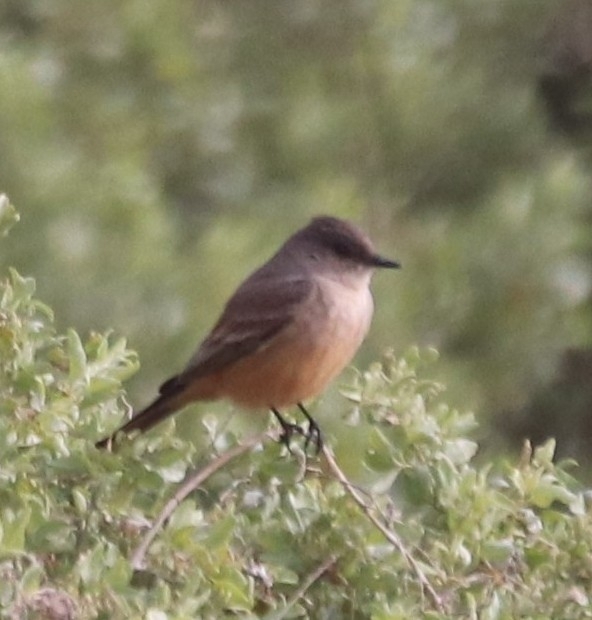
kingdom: Animalia
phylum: Chordata
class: Aves
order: Passeriformes
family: Tyrannidae
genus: Sayornis
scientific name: Sayornis saya
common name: Say's phoebe
